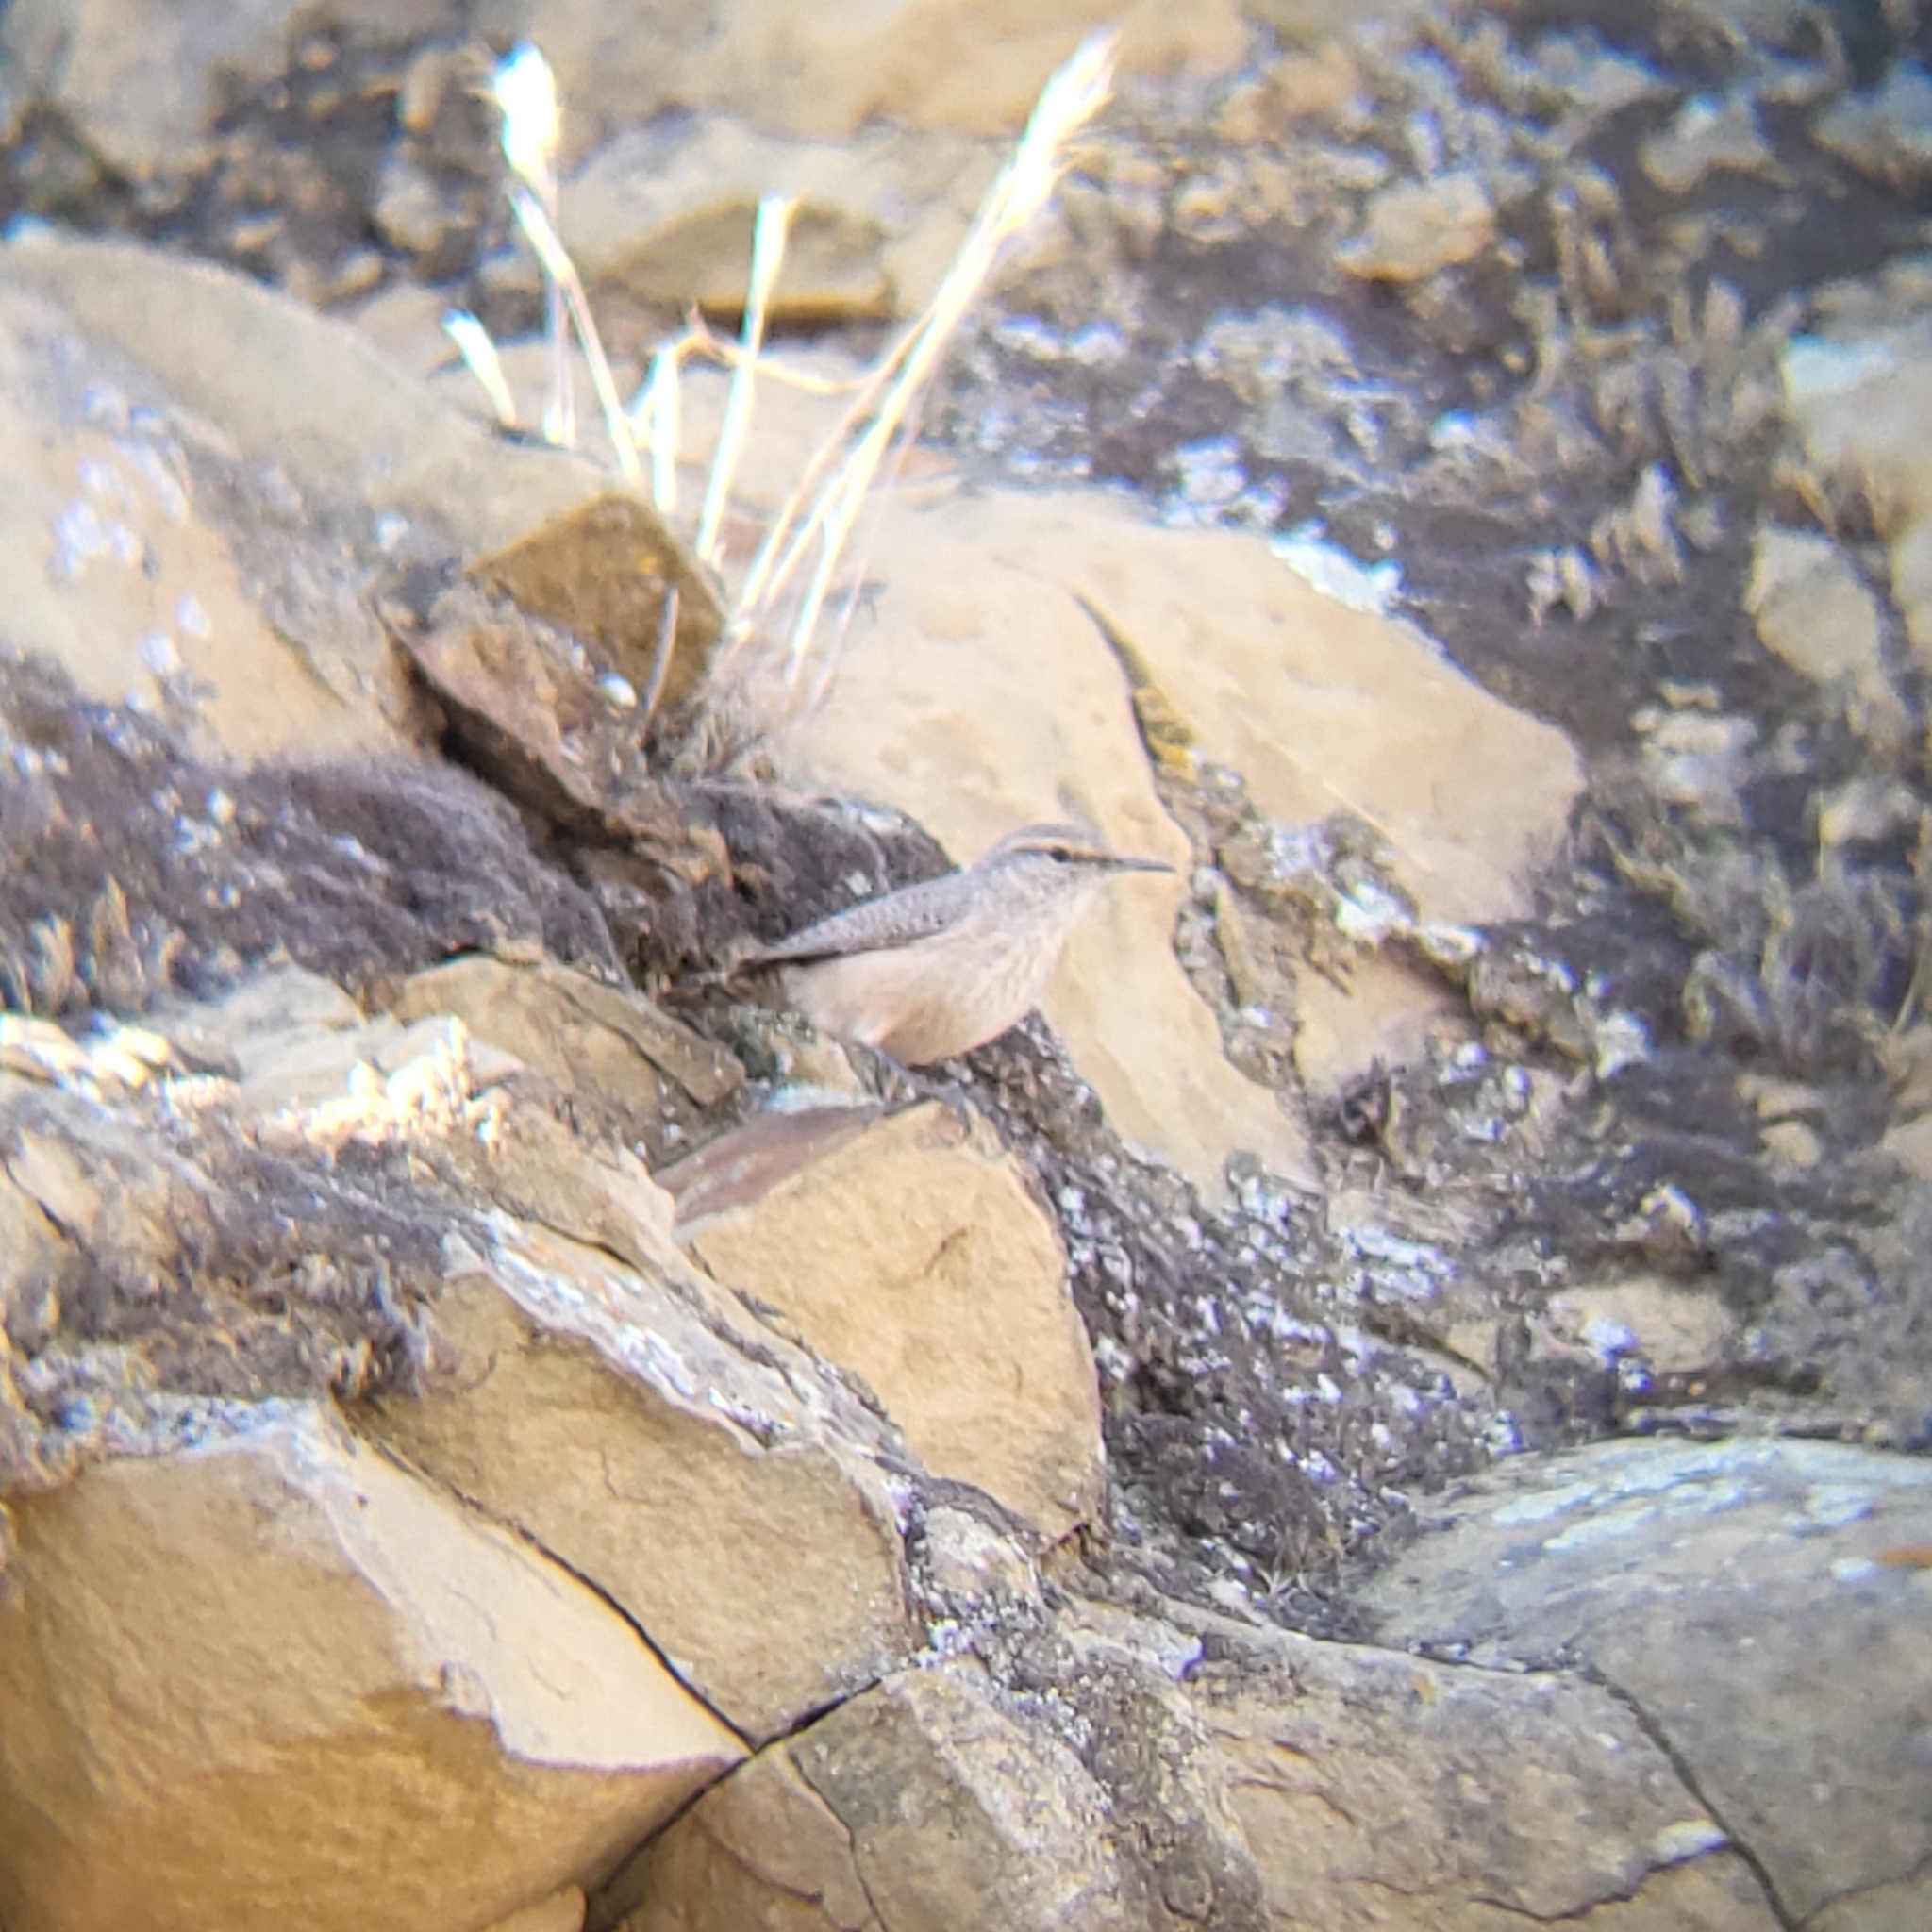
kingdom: Animalia
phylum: Chordata
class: Aves
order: Passeriformes
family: Troglodytidae
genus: Salpinctes
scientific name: Salpinctes obsoletus
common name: Rock wren
